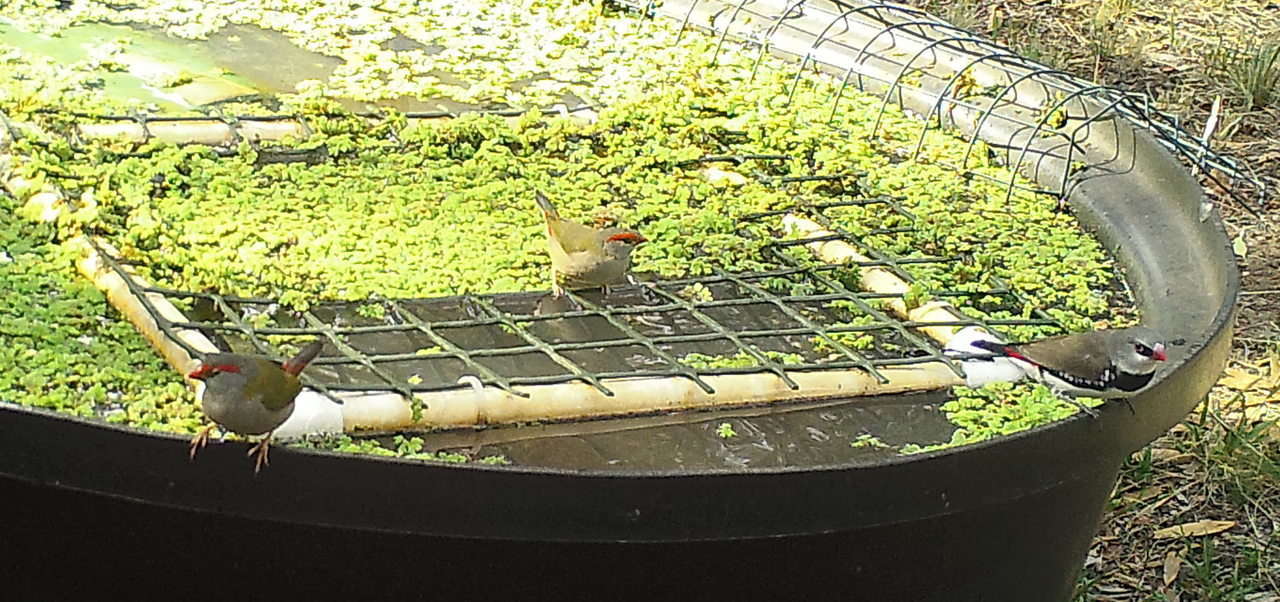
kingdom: Animalia
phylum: Chordata
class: Aves
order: Passeriformes
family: Estrildidae
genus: Stagonopleura
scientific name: Stagonopleura guttata
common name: Diamond firetail
